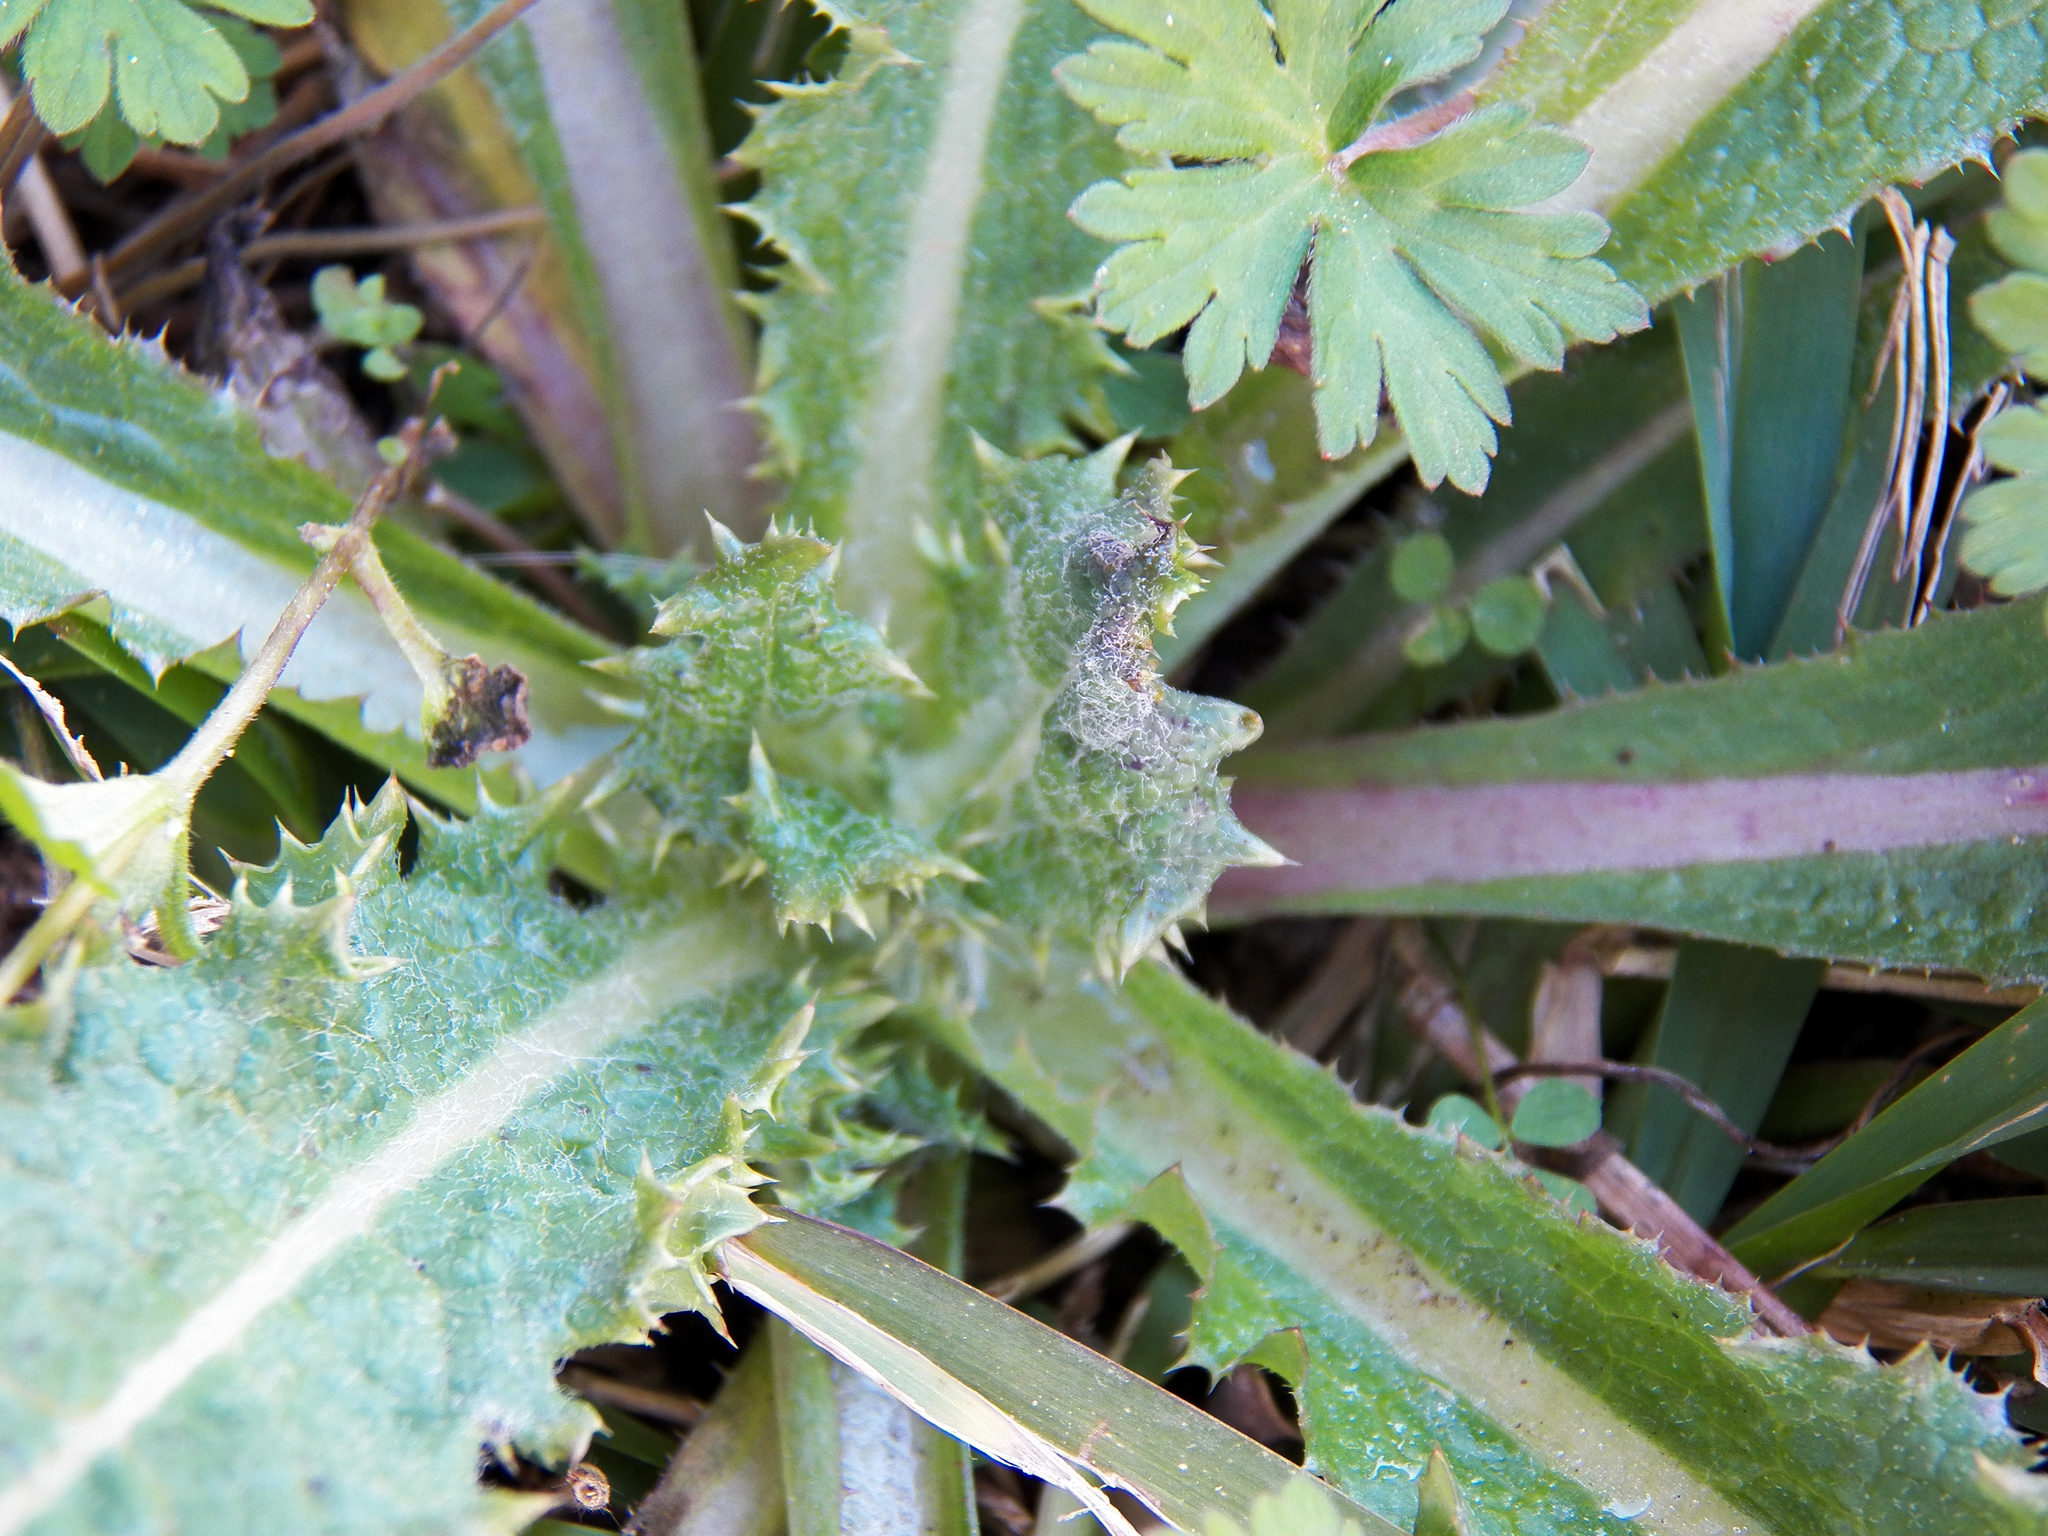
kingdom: Plantae
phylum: Tracheophyta
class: Magnoliopsida
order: Asterales
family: Asteraceae
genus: Sonchus
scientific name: Sonchus asper
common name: Prickly sow-thistle
